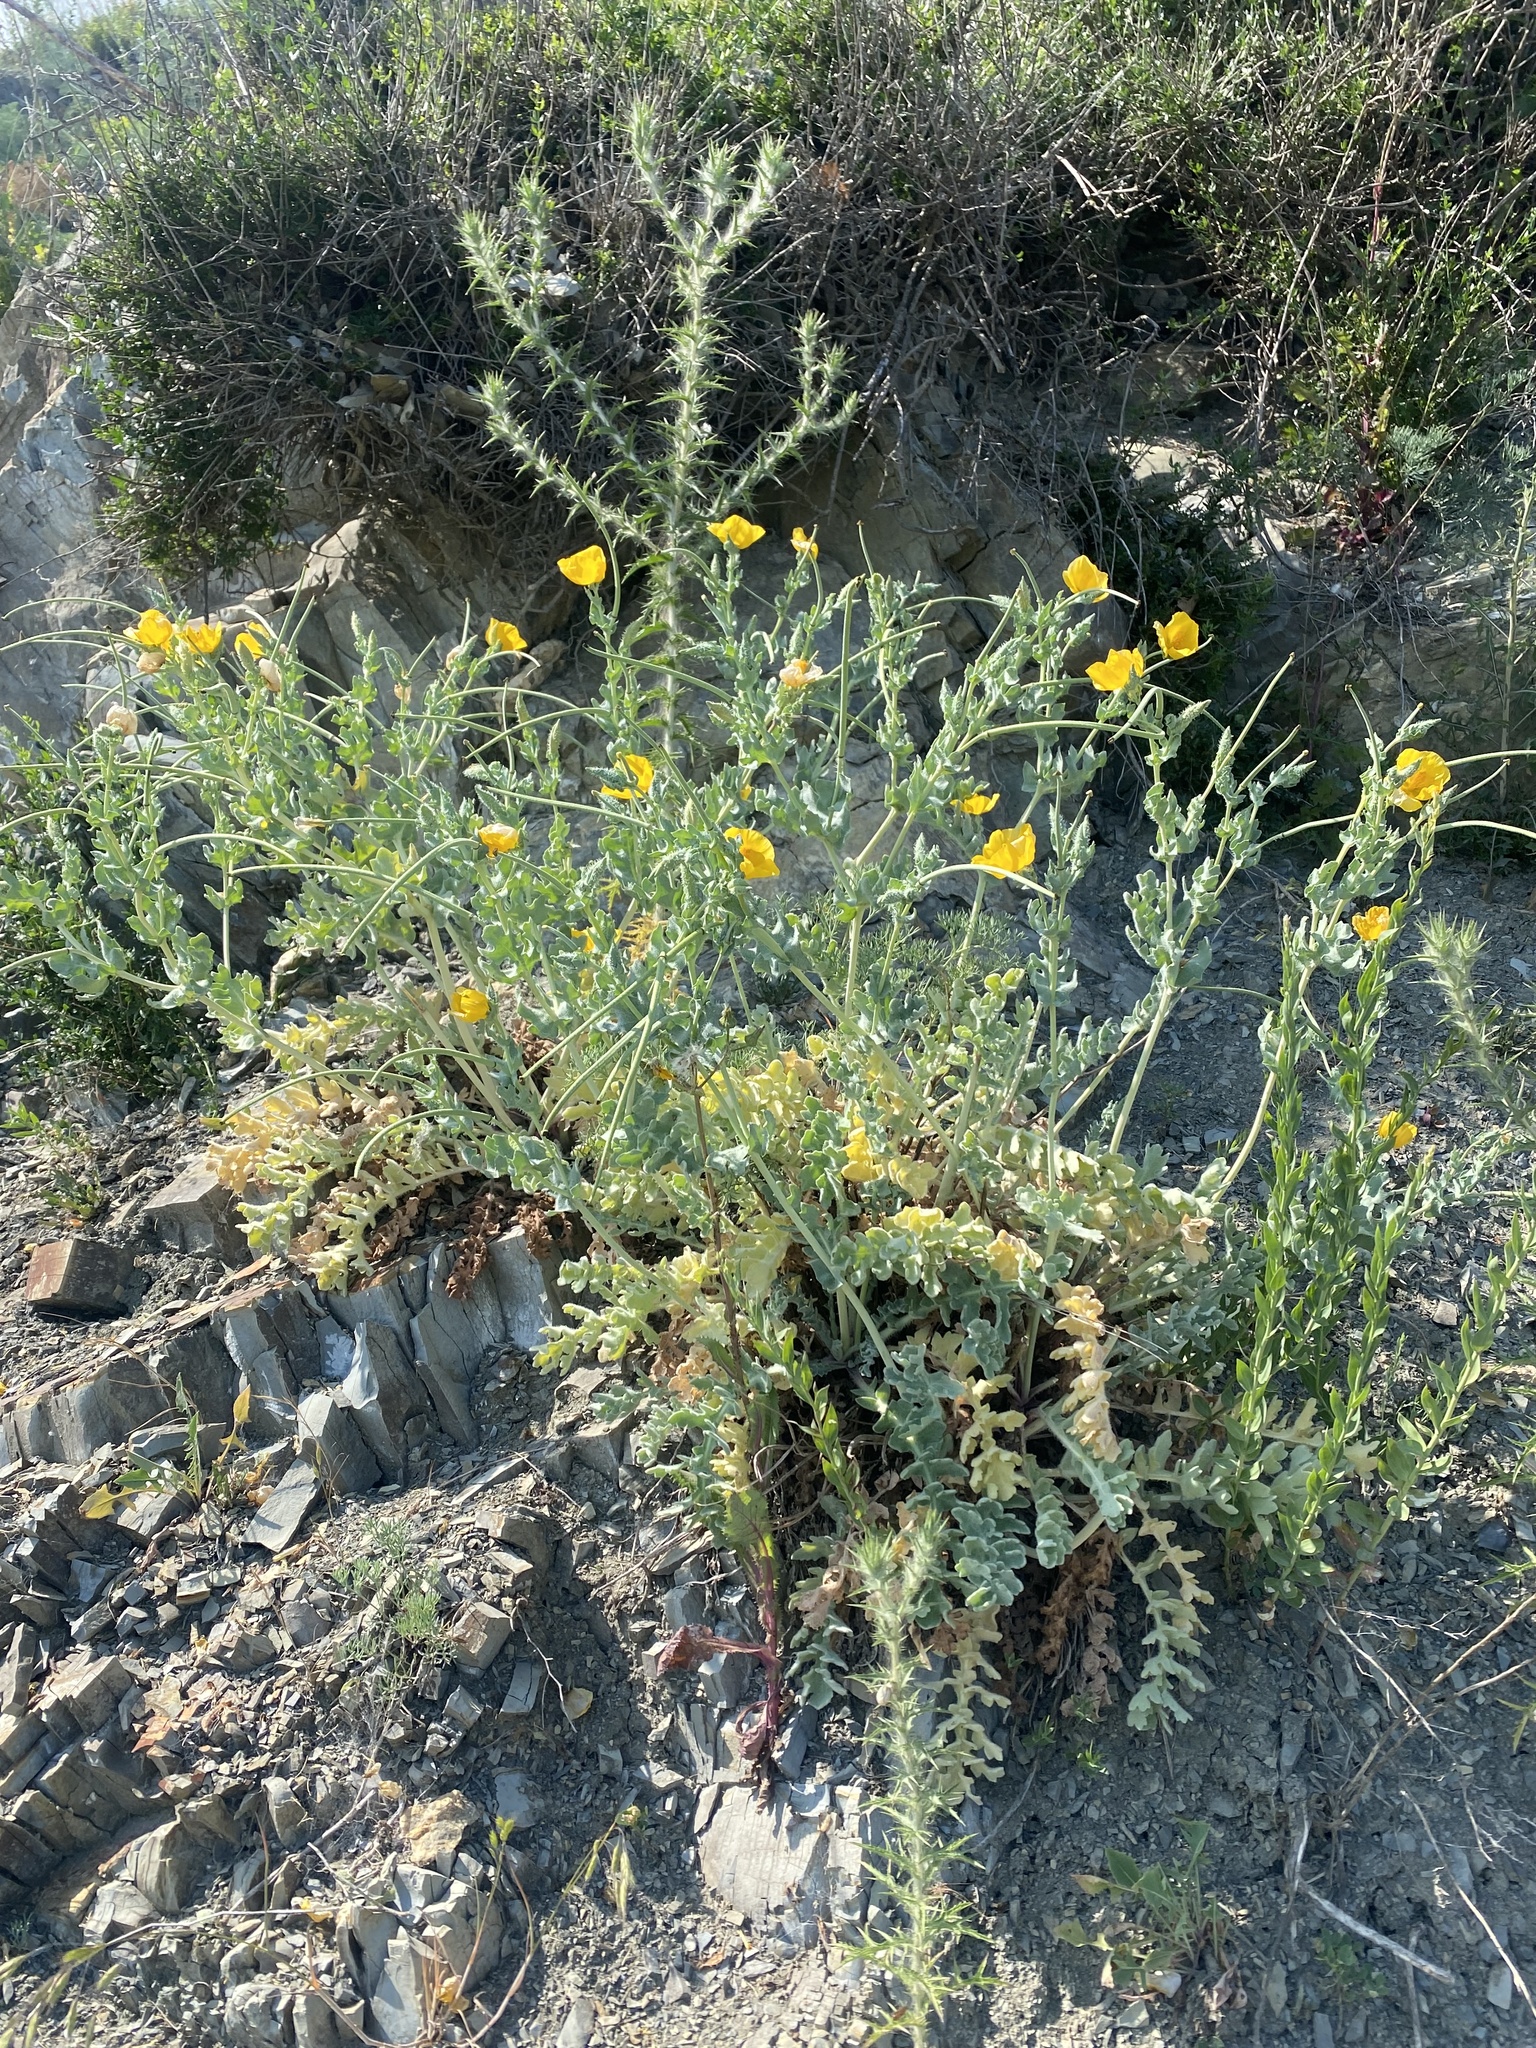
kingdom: Plantae
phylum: Tracheophyta
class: Magnoliopsida
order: Ranunculales
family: Papaveraceae
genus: Glaucium
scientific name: Glaucium flavum
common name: Yellow horned-poppy
